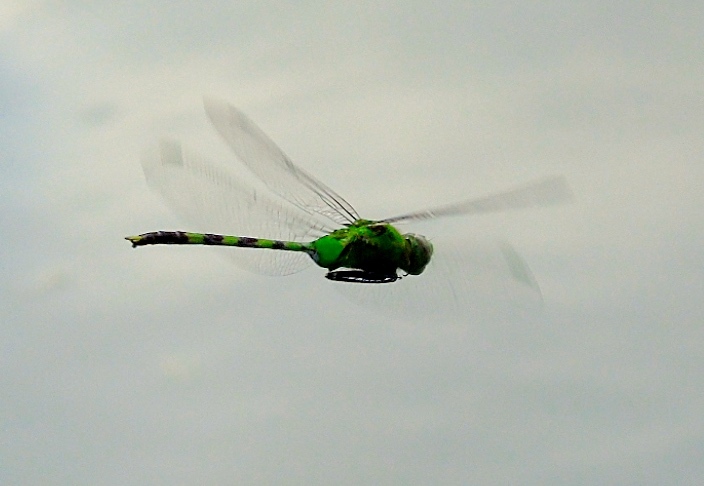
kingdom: Animalia
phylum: Arthropoda
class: Insecta
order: Odonata
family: Libellulidae
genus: Erythemis
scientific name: Erythemis vesiculosa
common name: Great pondhawk
